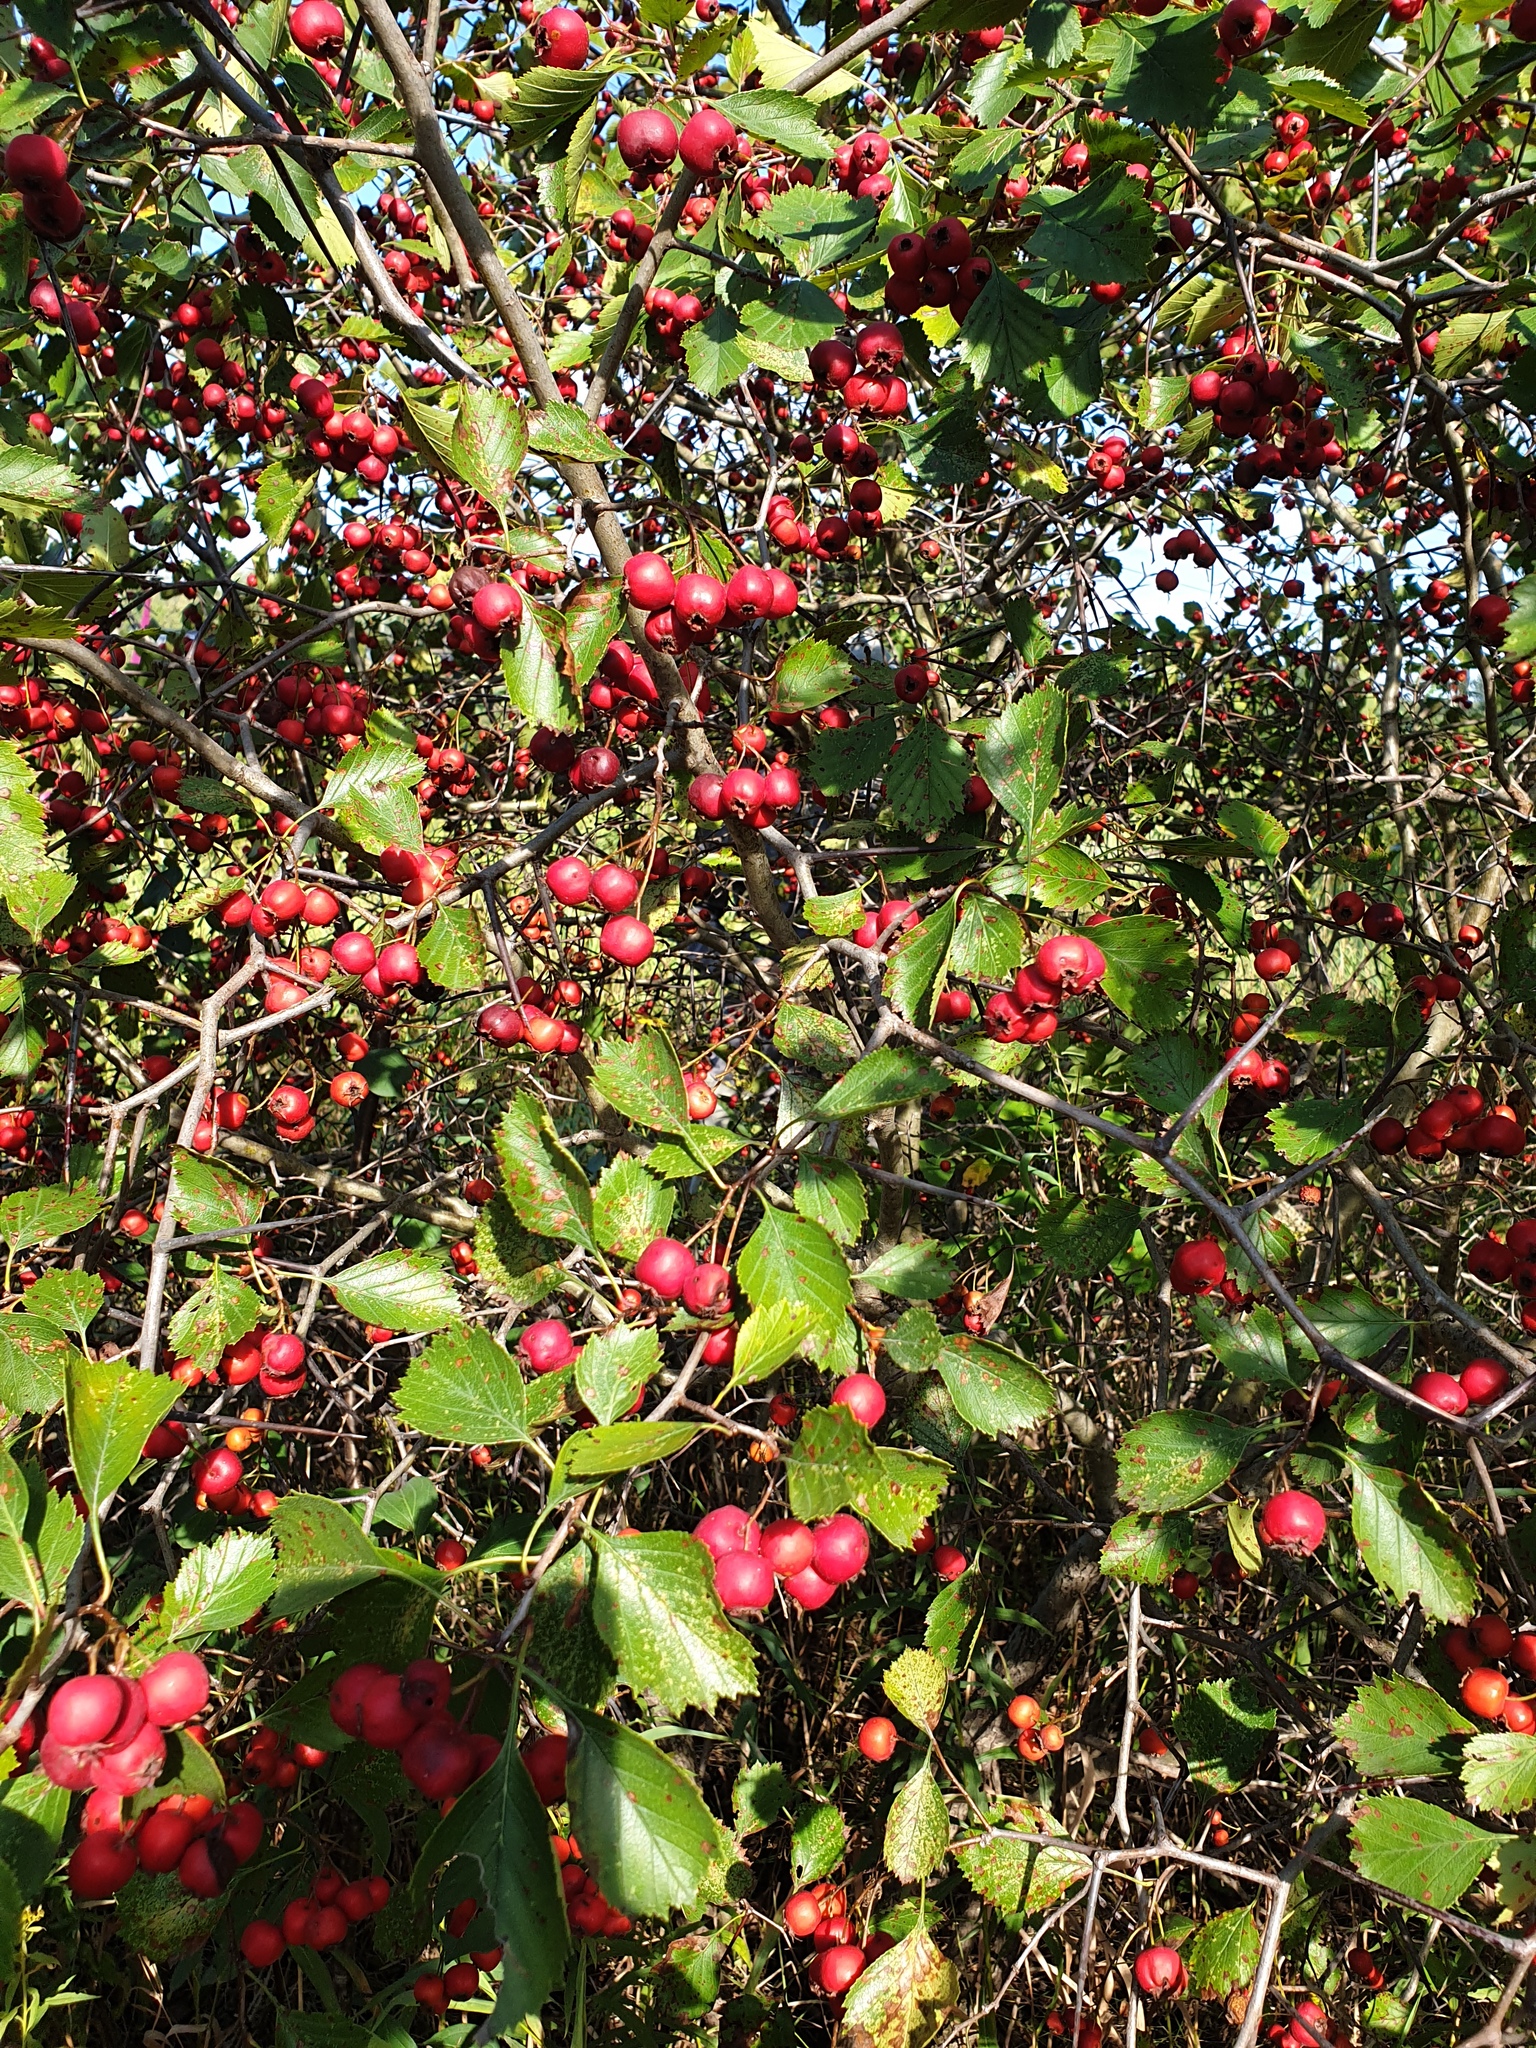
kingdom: Plantae
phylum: Tracheophyta
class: Magnoliopsida
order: Rosales
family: Rosaceae
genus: Crataegus
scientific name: Crataegus chrysocarpa
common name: Fire-berry hawthorn
